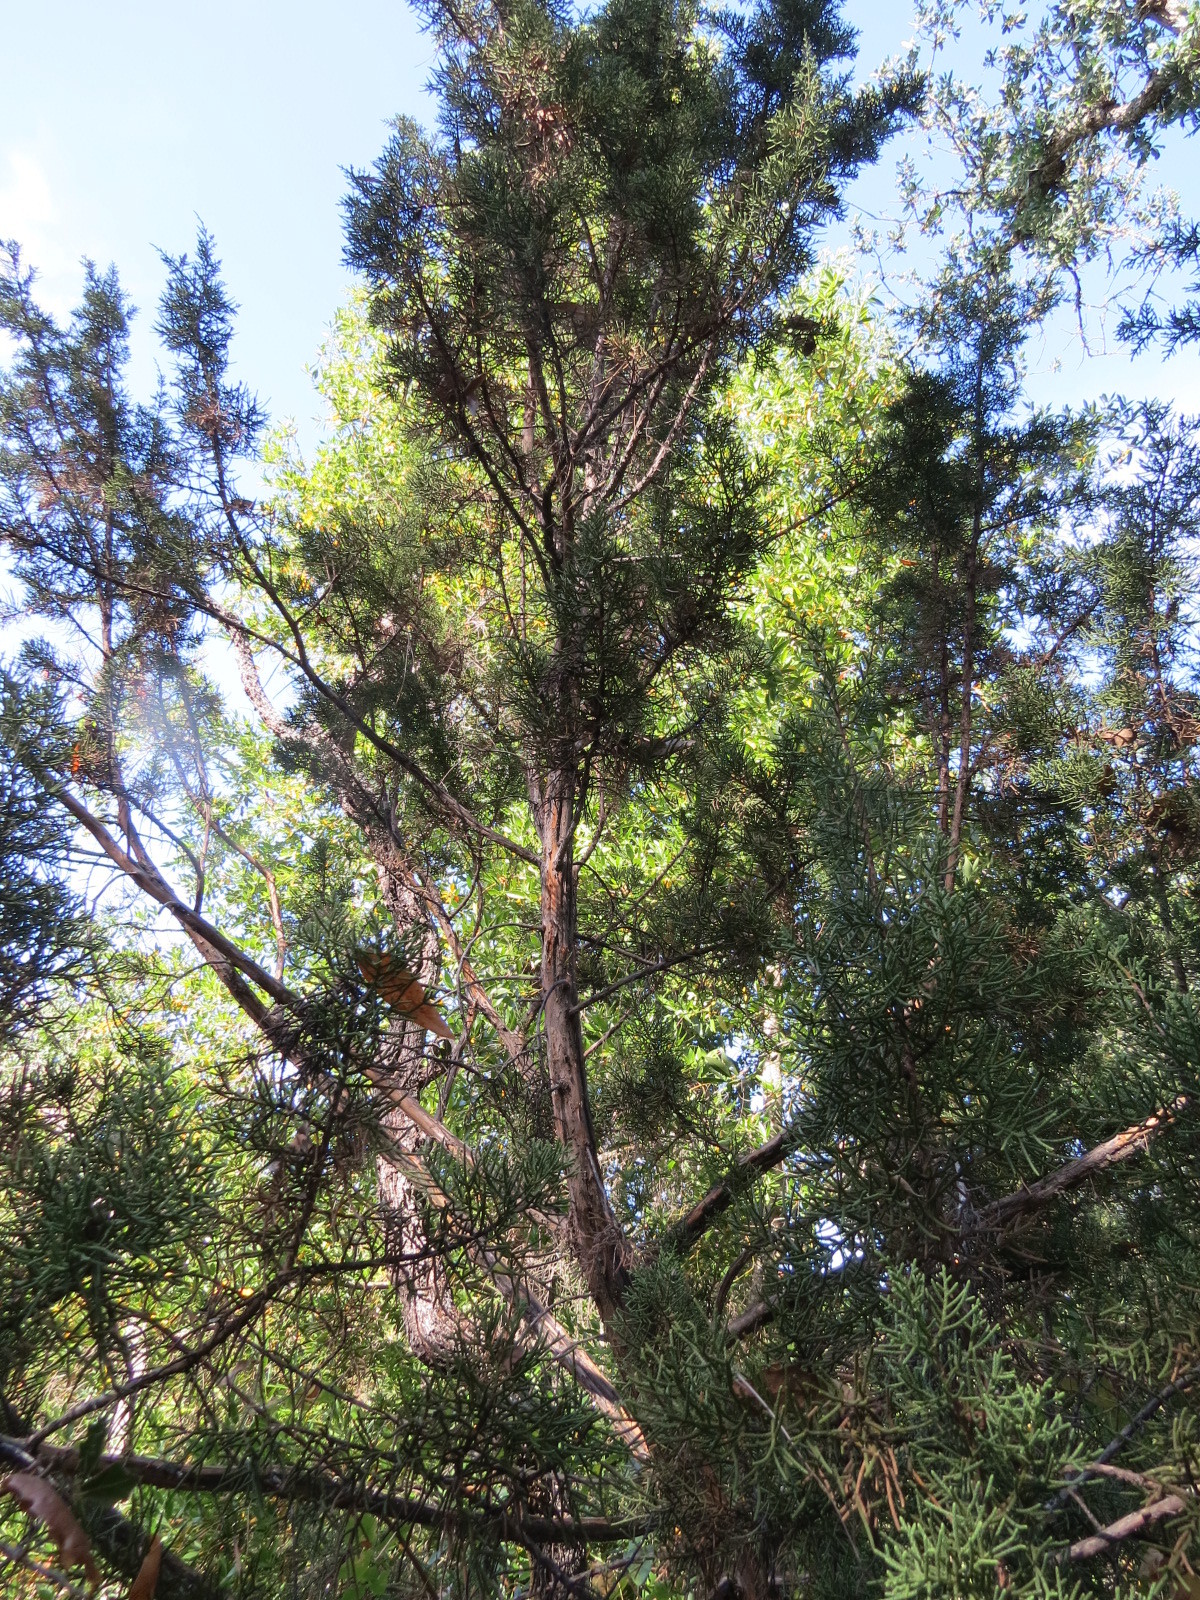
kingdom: Plantae
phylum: Tracheophyta
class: Pinopsida
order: Pinales
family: Cupressaceae
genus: Juniperus
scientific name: Juniperus californica
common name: California juniper
